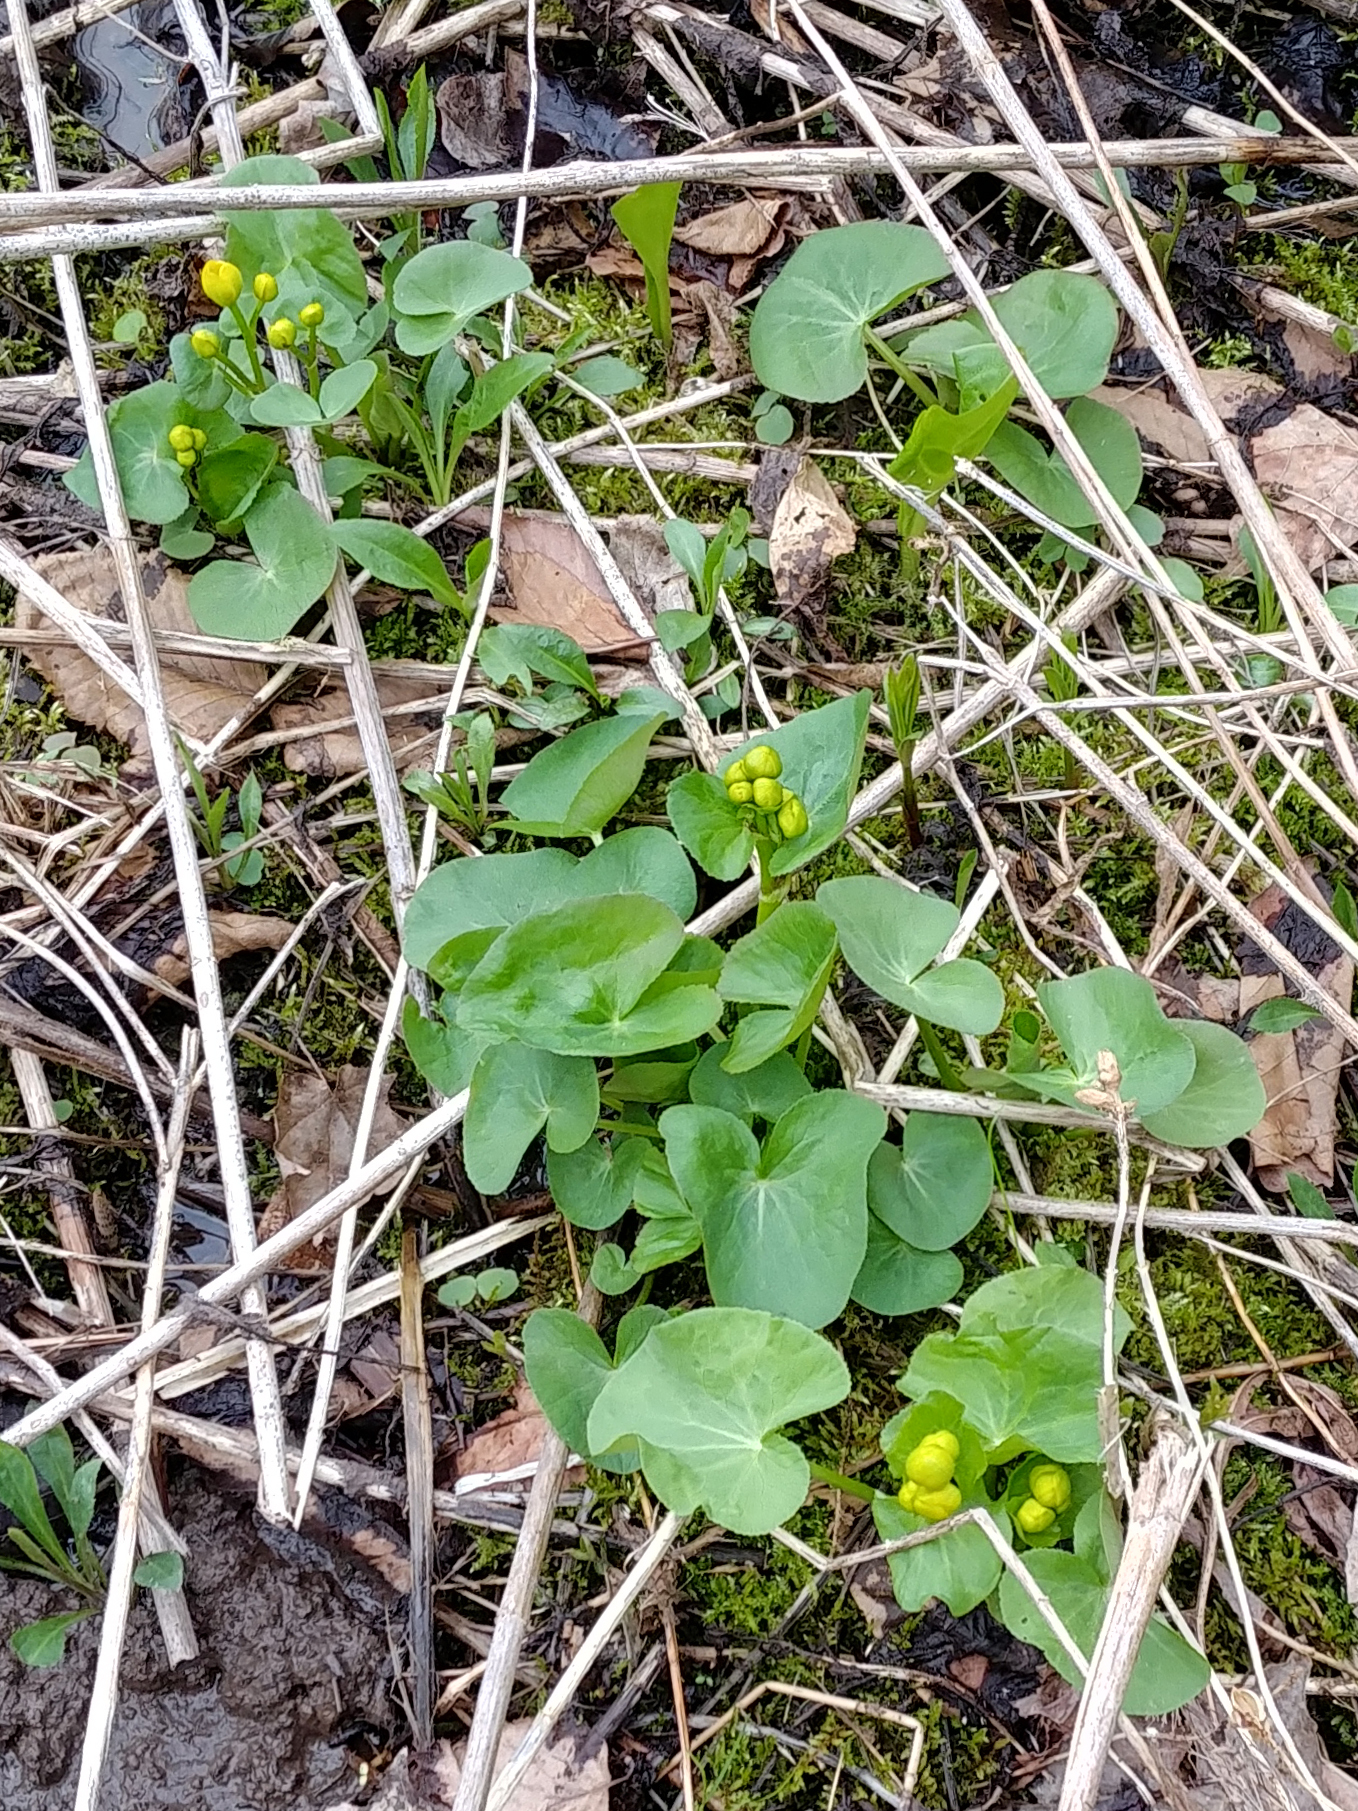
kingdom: Plantae
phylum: Tracheophyta
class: Magnoliopsida
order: Ranunculales
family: Ranunculaceae
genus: Caltha
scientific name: Caltha palustris
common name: Marsh marigold
